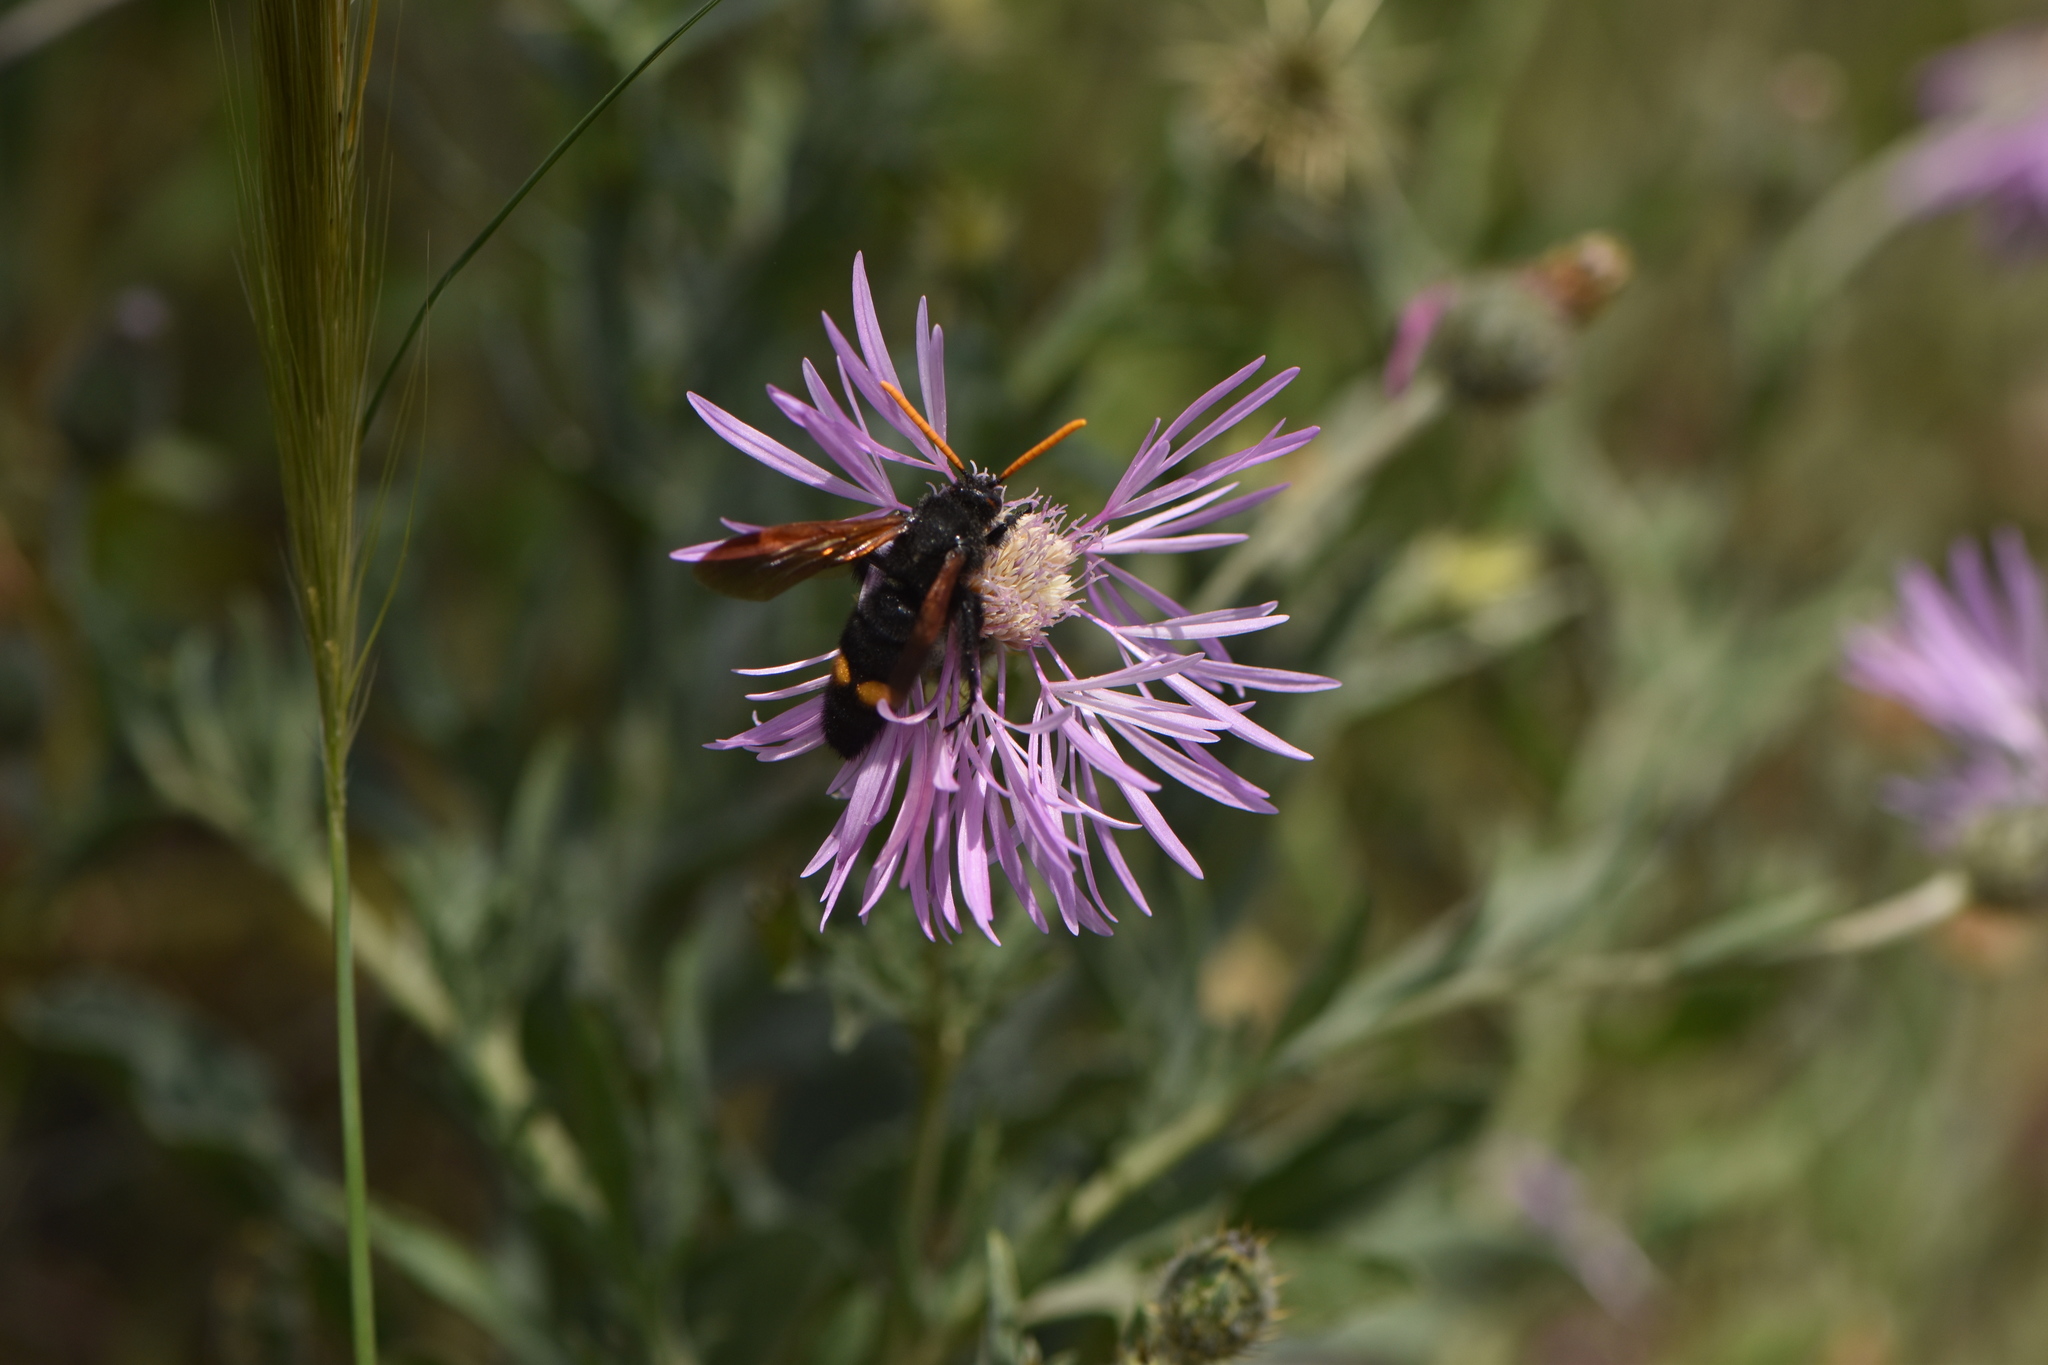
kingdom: Animalia
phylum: Arthropoda
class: Insecta
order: Hymenoptera
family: Scoliidae
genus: Megascolia
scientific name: Megascolia bidens
